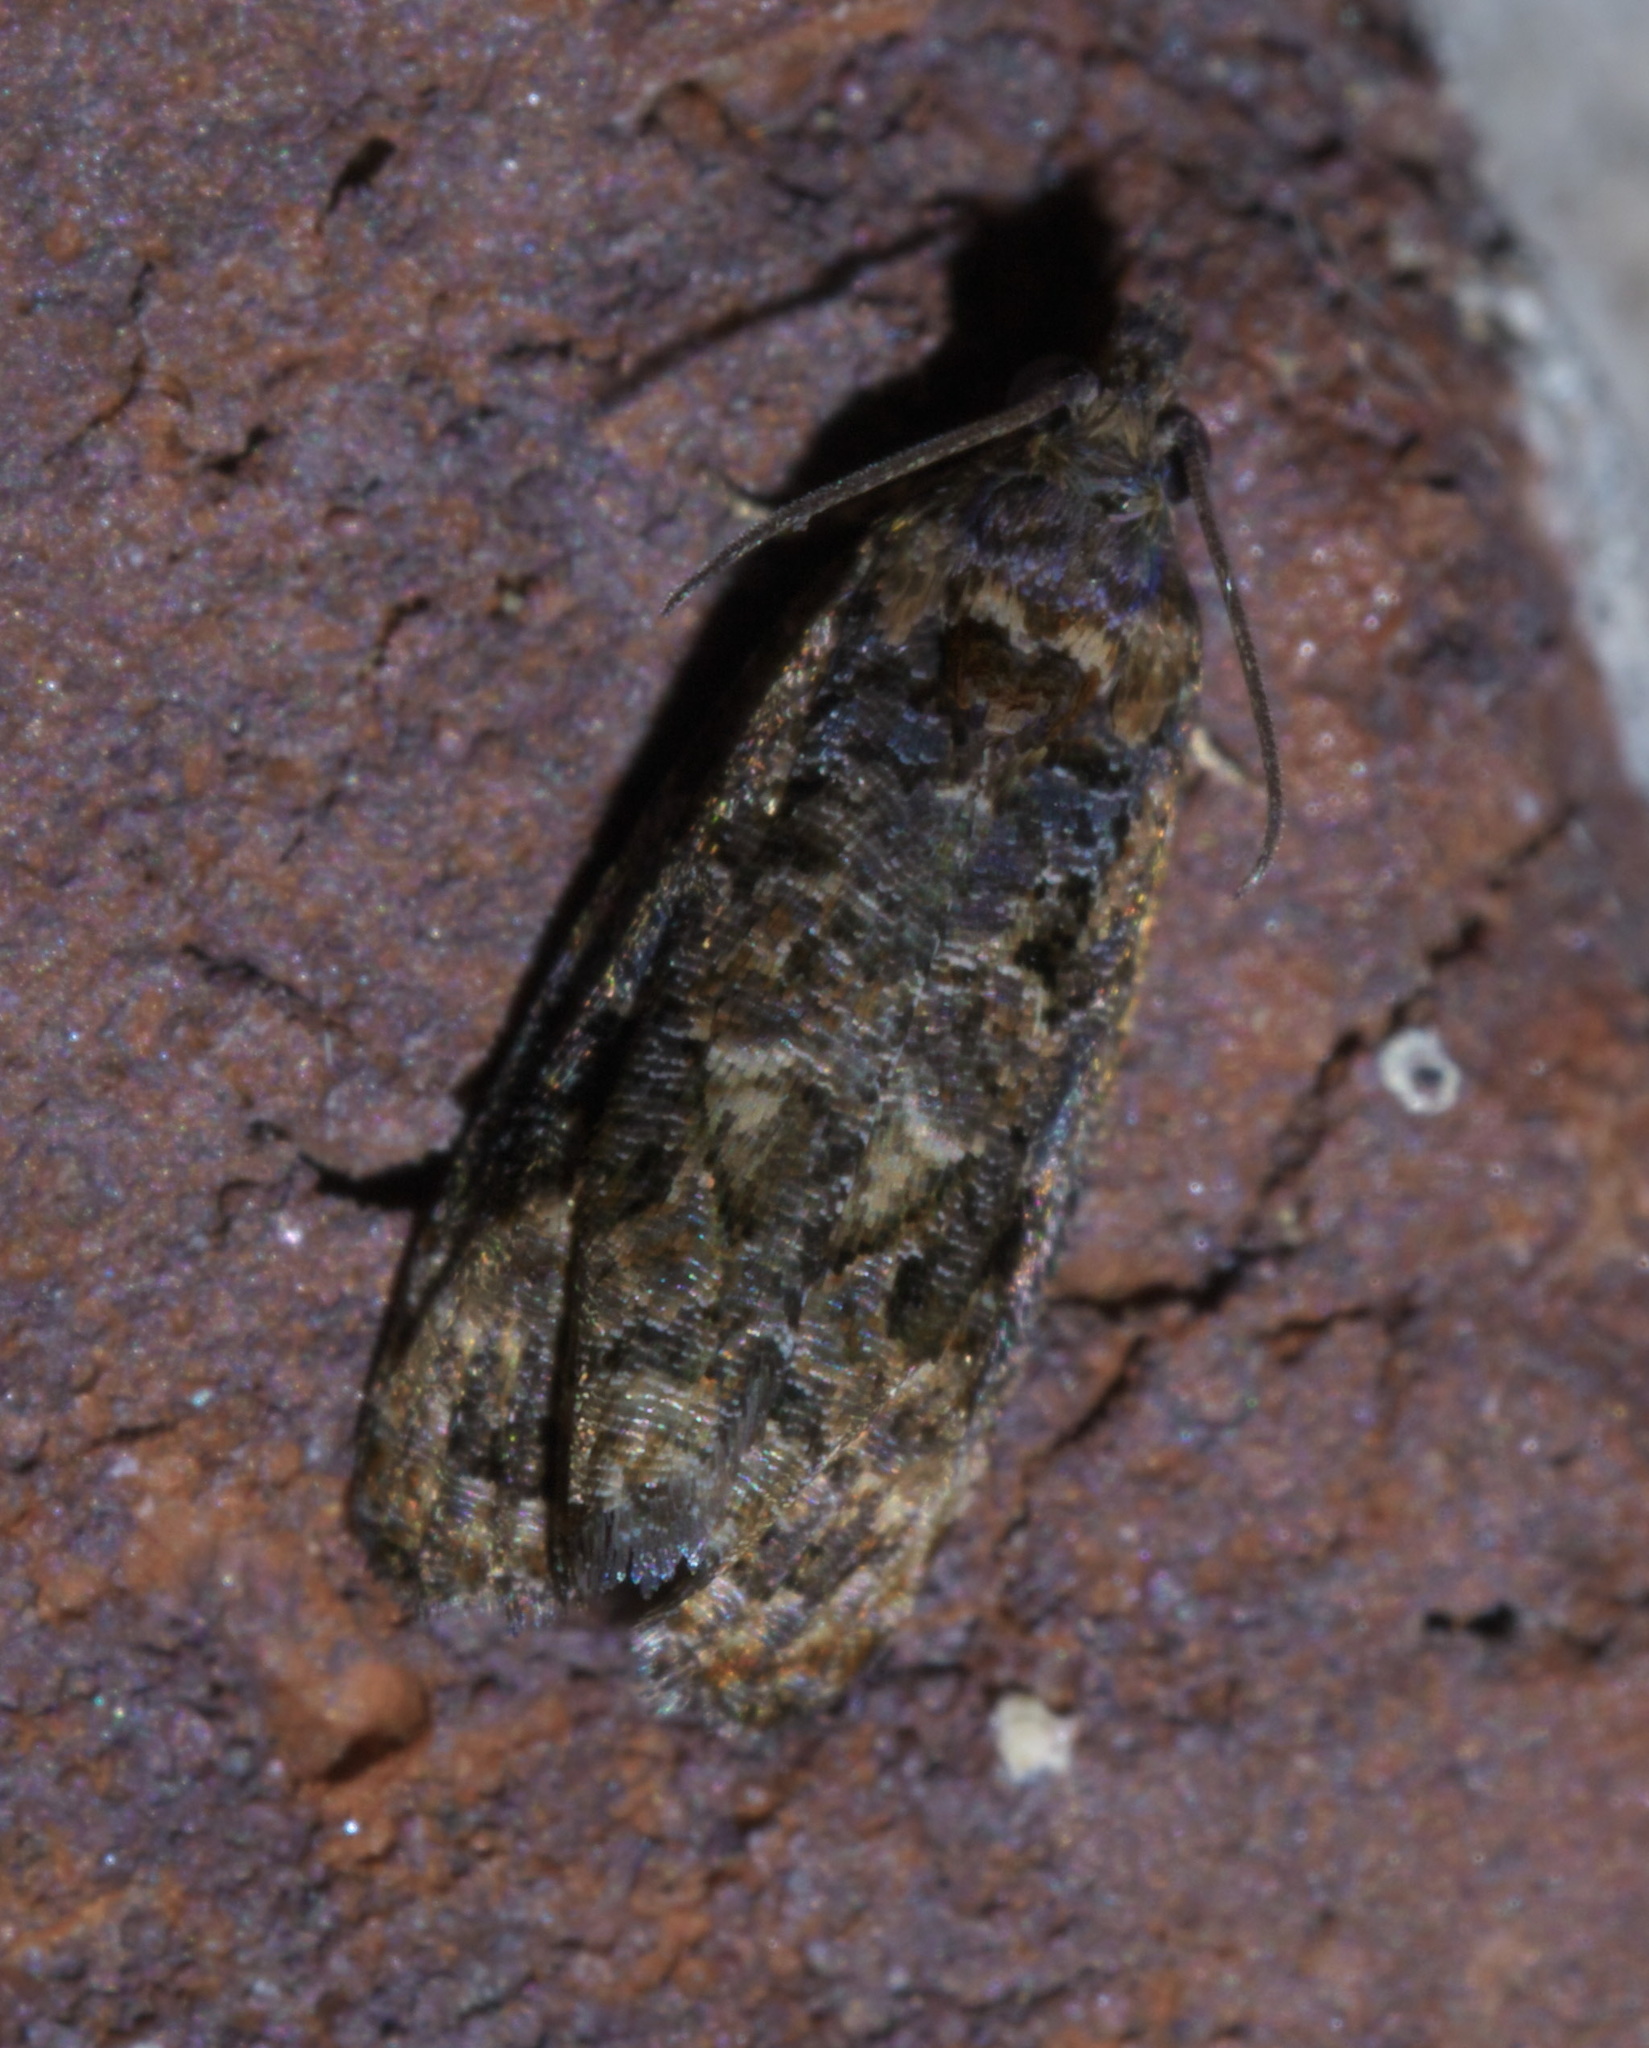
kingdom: Animalia
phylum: Arthropoda
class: Insecta
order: Lepidoptera
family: Tortricidae
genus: Endothenia
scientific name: Endothenia hebesana
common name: Verbena bud moth
